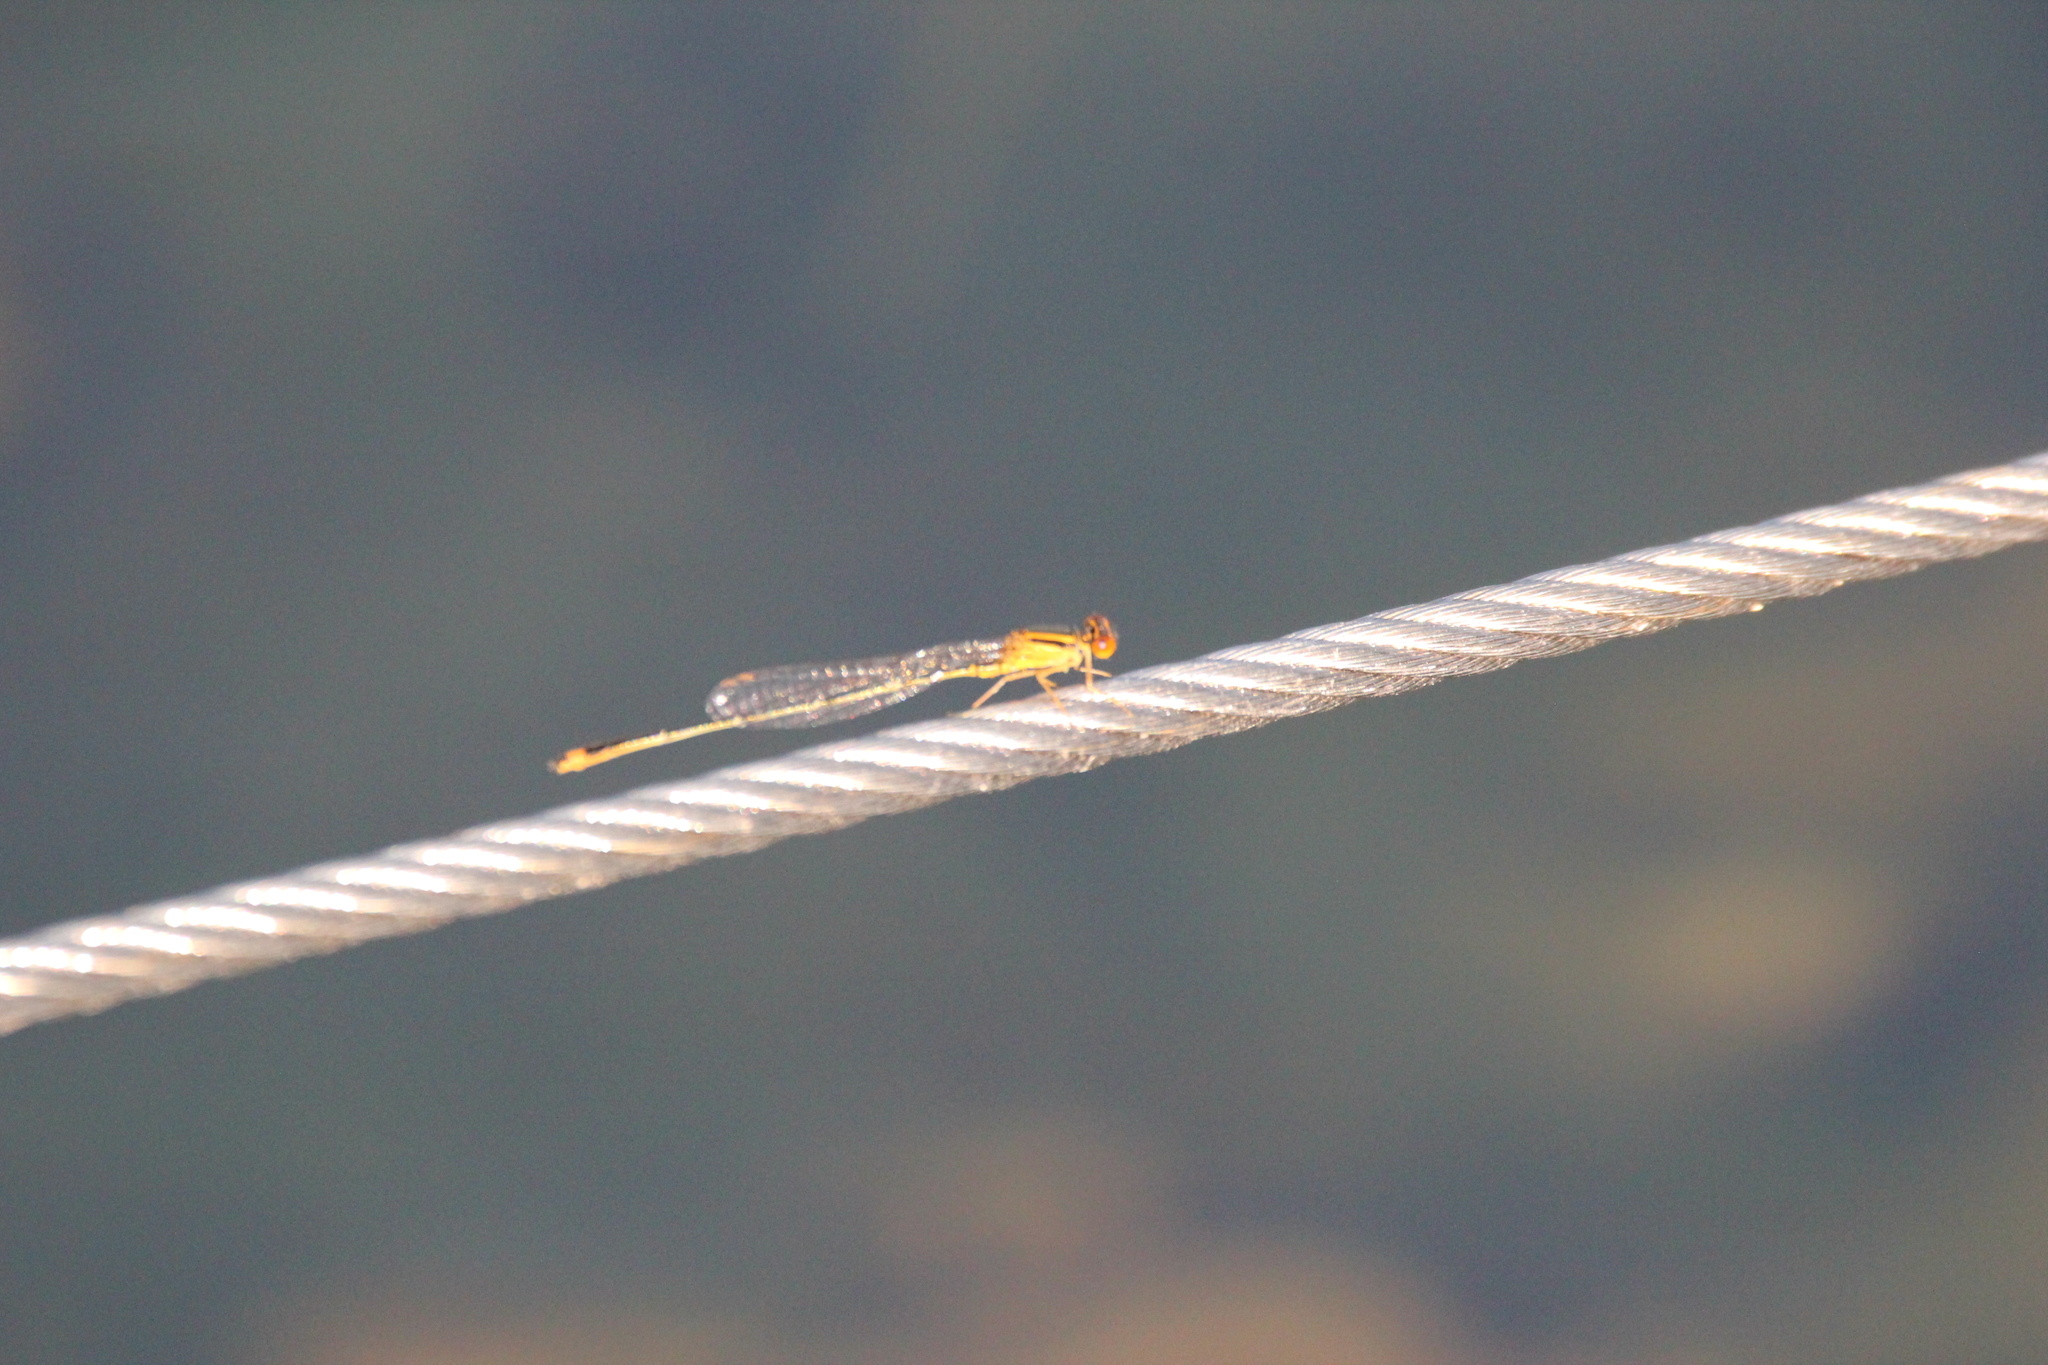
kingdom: Animalia
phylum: Arthropoda
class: Insecta
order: Odonata
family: Coenagrionidae
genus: Enallagma
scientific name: Enallagma signatum
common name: Orange bluet
